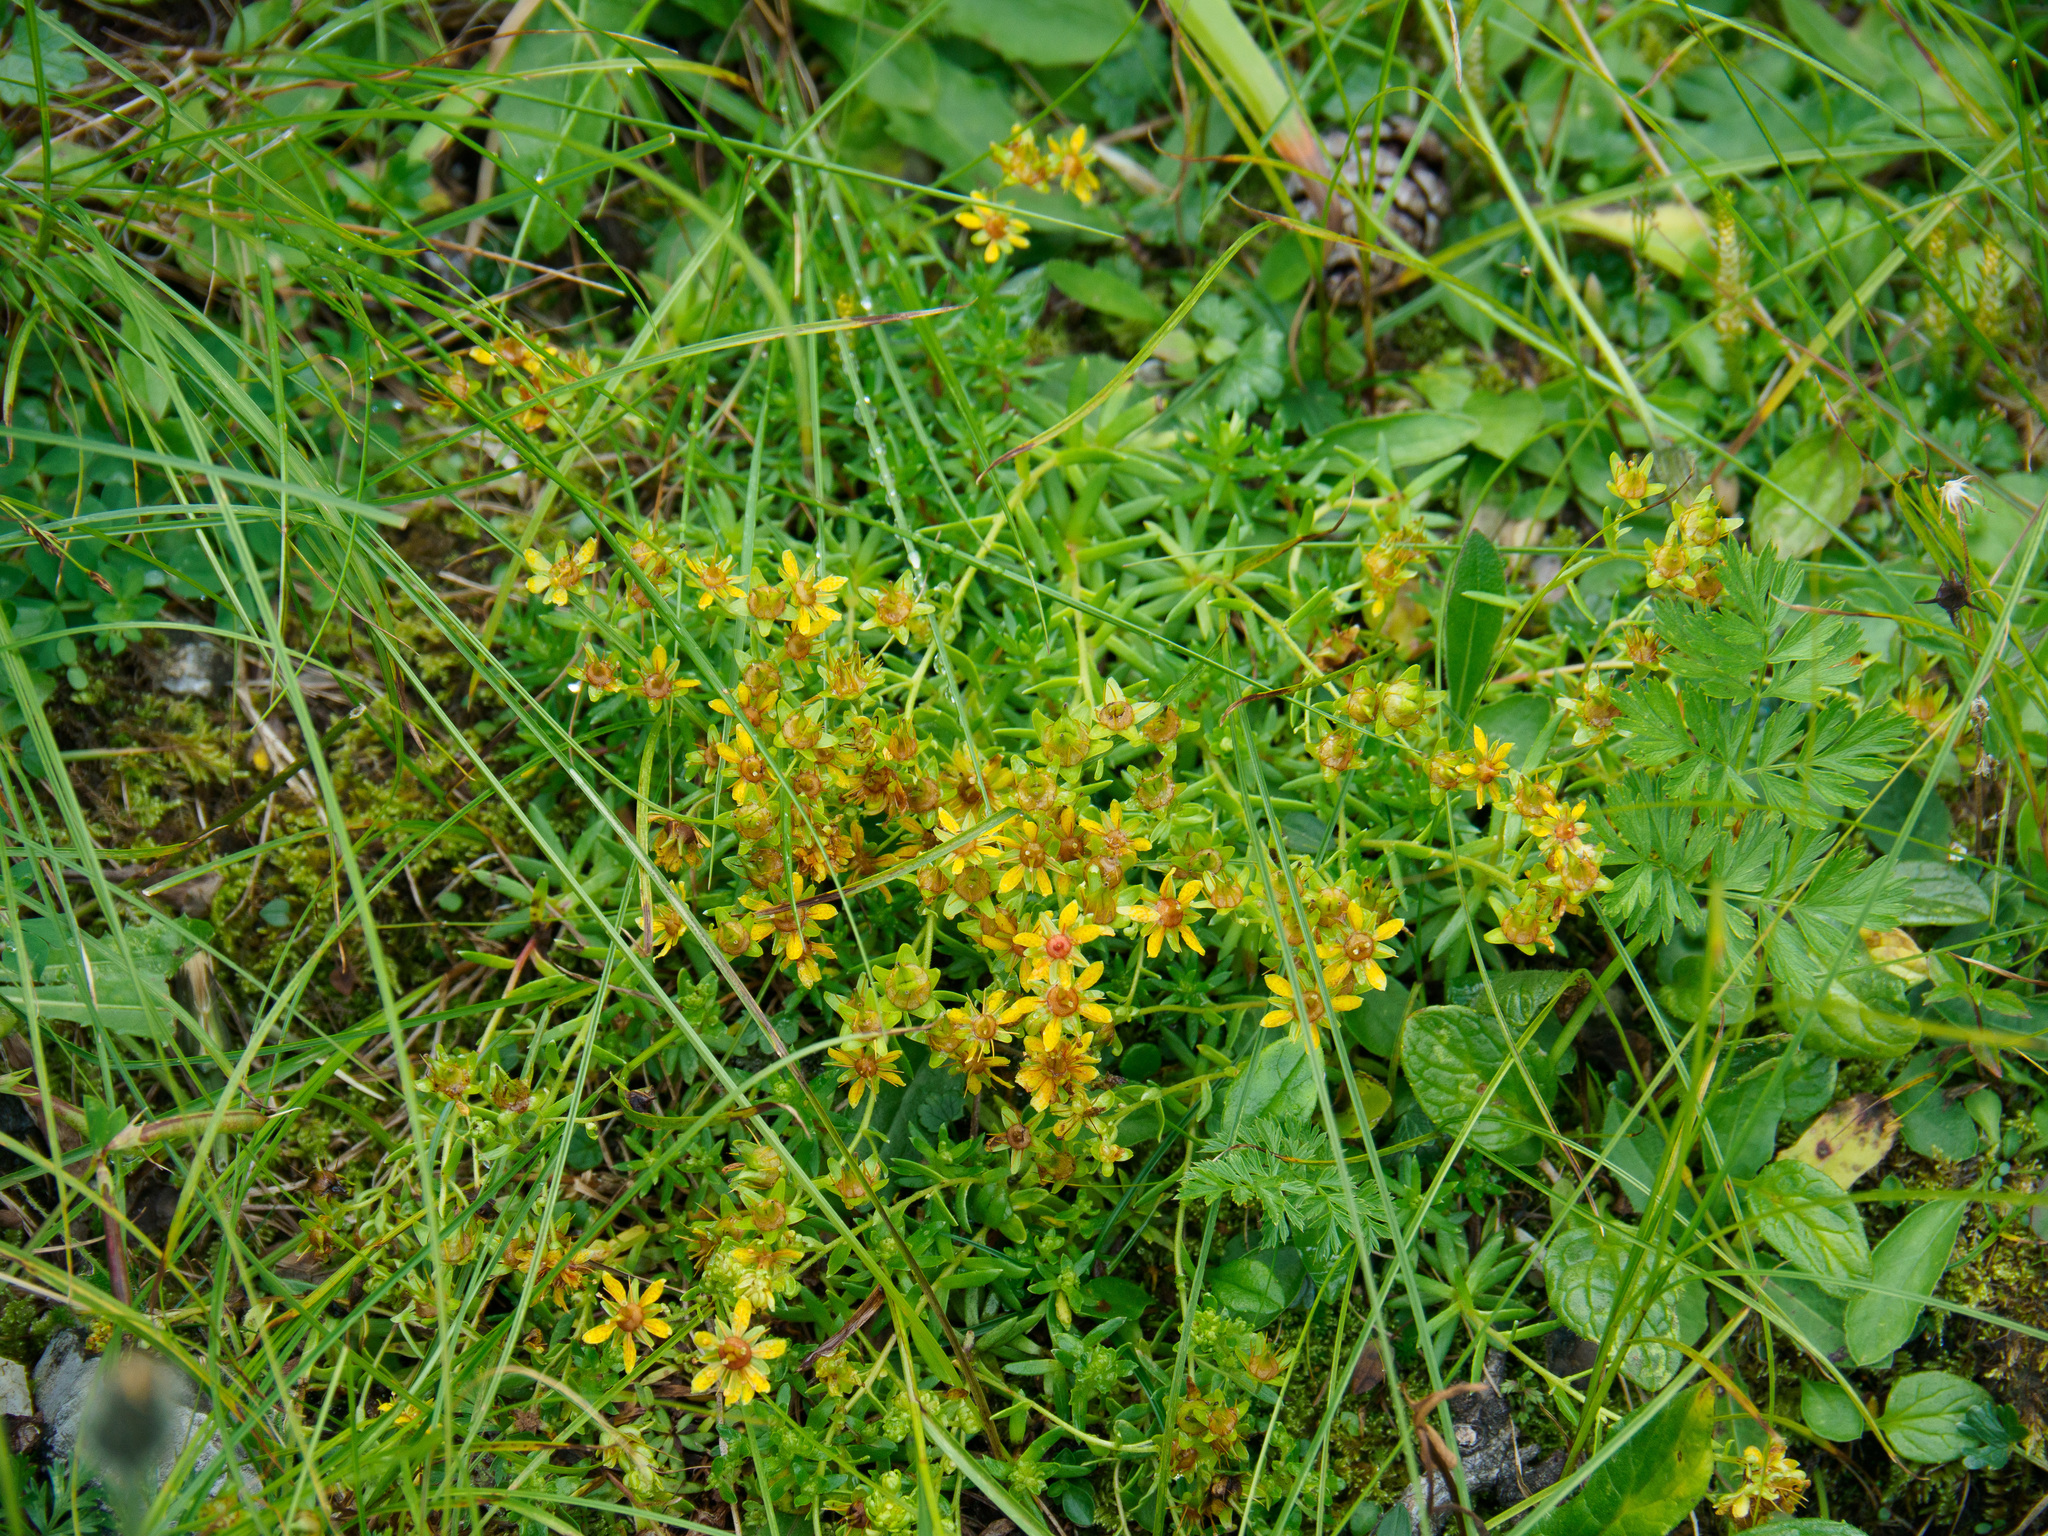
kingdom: Plantae
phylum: Tracheophyta
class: Magnoliopsida
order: Saxifragales
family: Saxifragaceae
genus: Saxifraga
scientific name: Saxifraga aizoides
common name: Yellow mountain saxifrage
